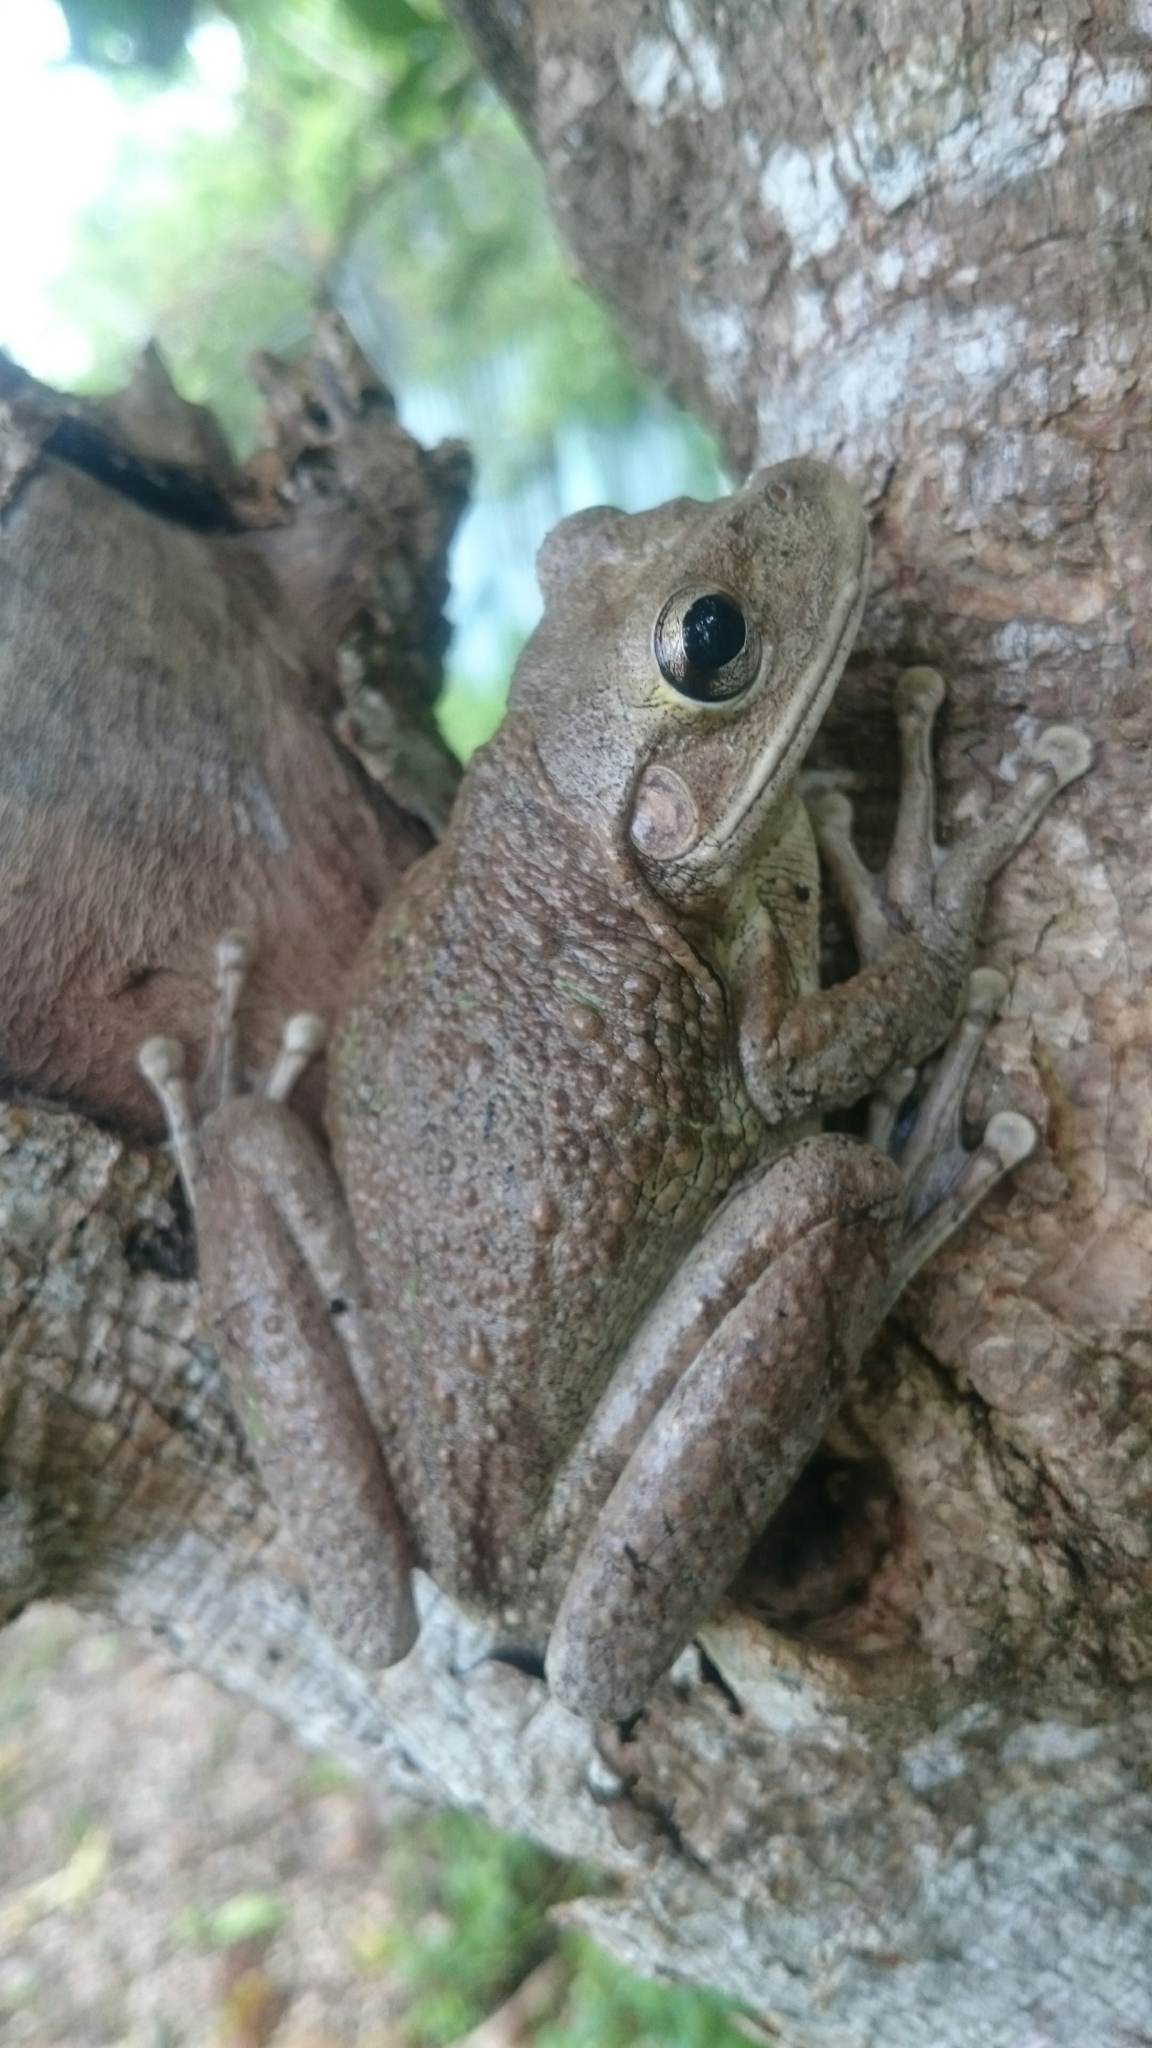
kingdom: Animalia
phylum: Chordata
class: Amphibia
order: Anura
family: Hylidae
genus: Osteopilus
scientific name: Osteopilus septentrionalis
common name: Cuban treefrog
